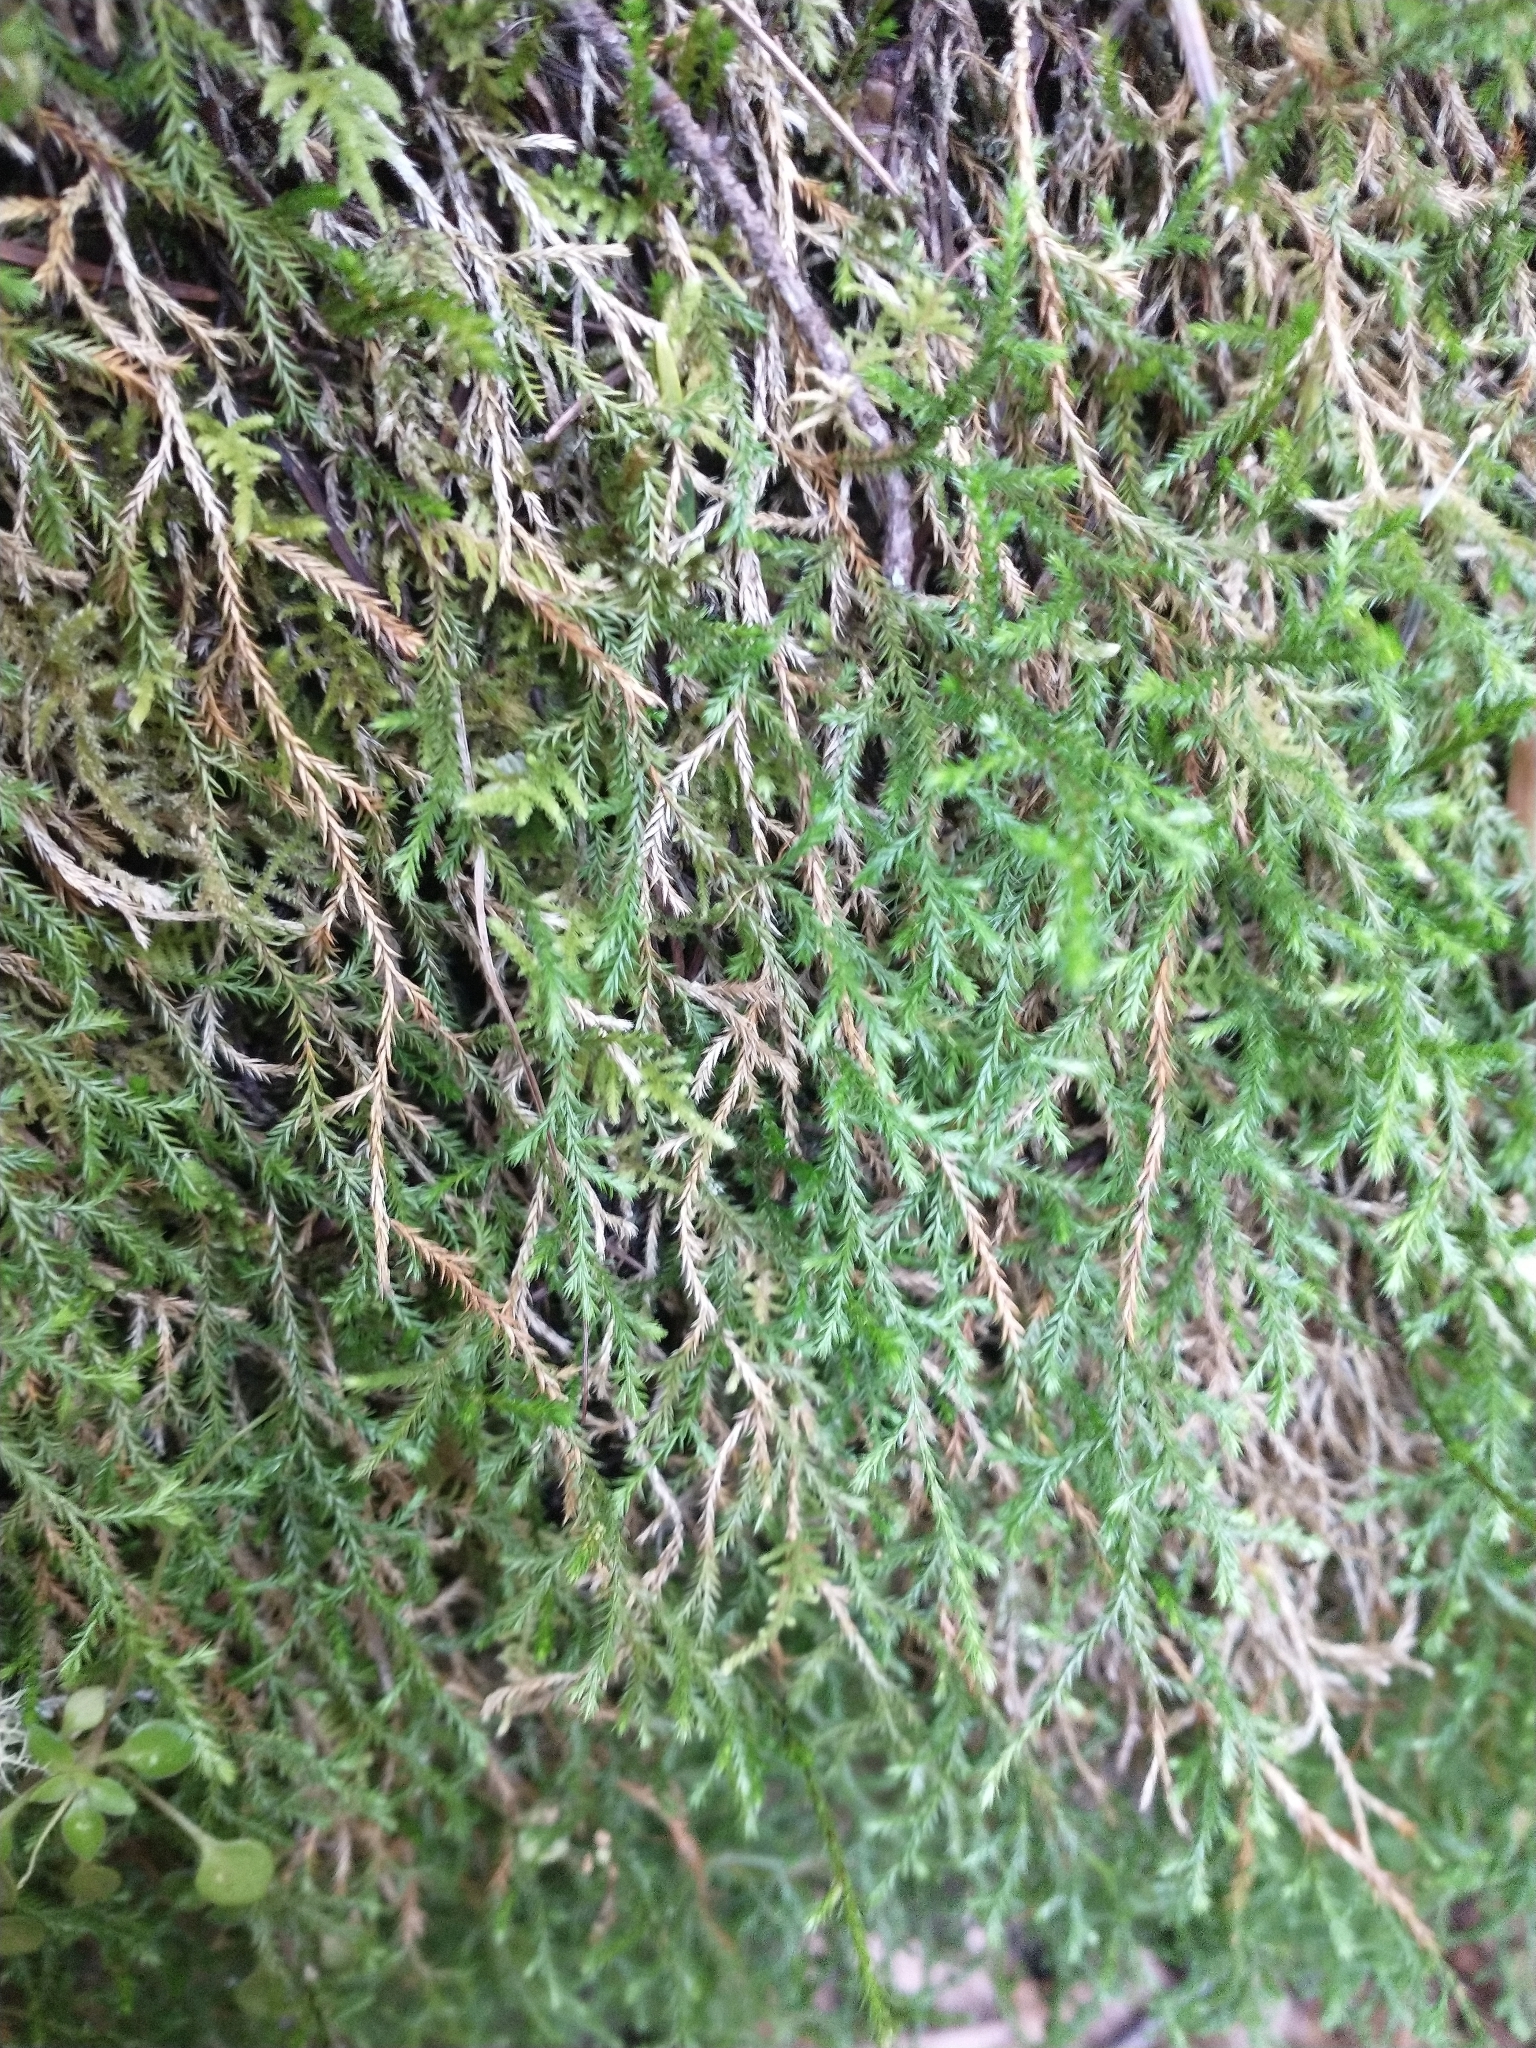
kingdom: Plantae
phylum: Tracheophyta
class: Lycopodiopsida
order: Selaginellales
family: Selaginellaceae
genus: Selaginella
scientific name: Selaginella oregana
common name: Oregon selaginella
